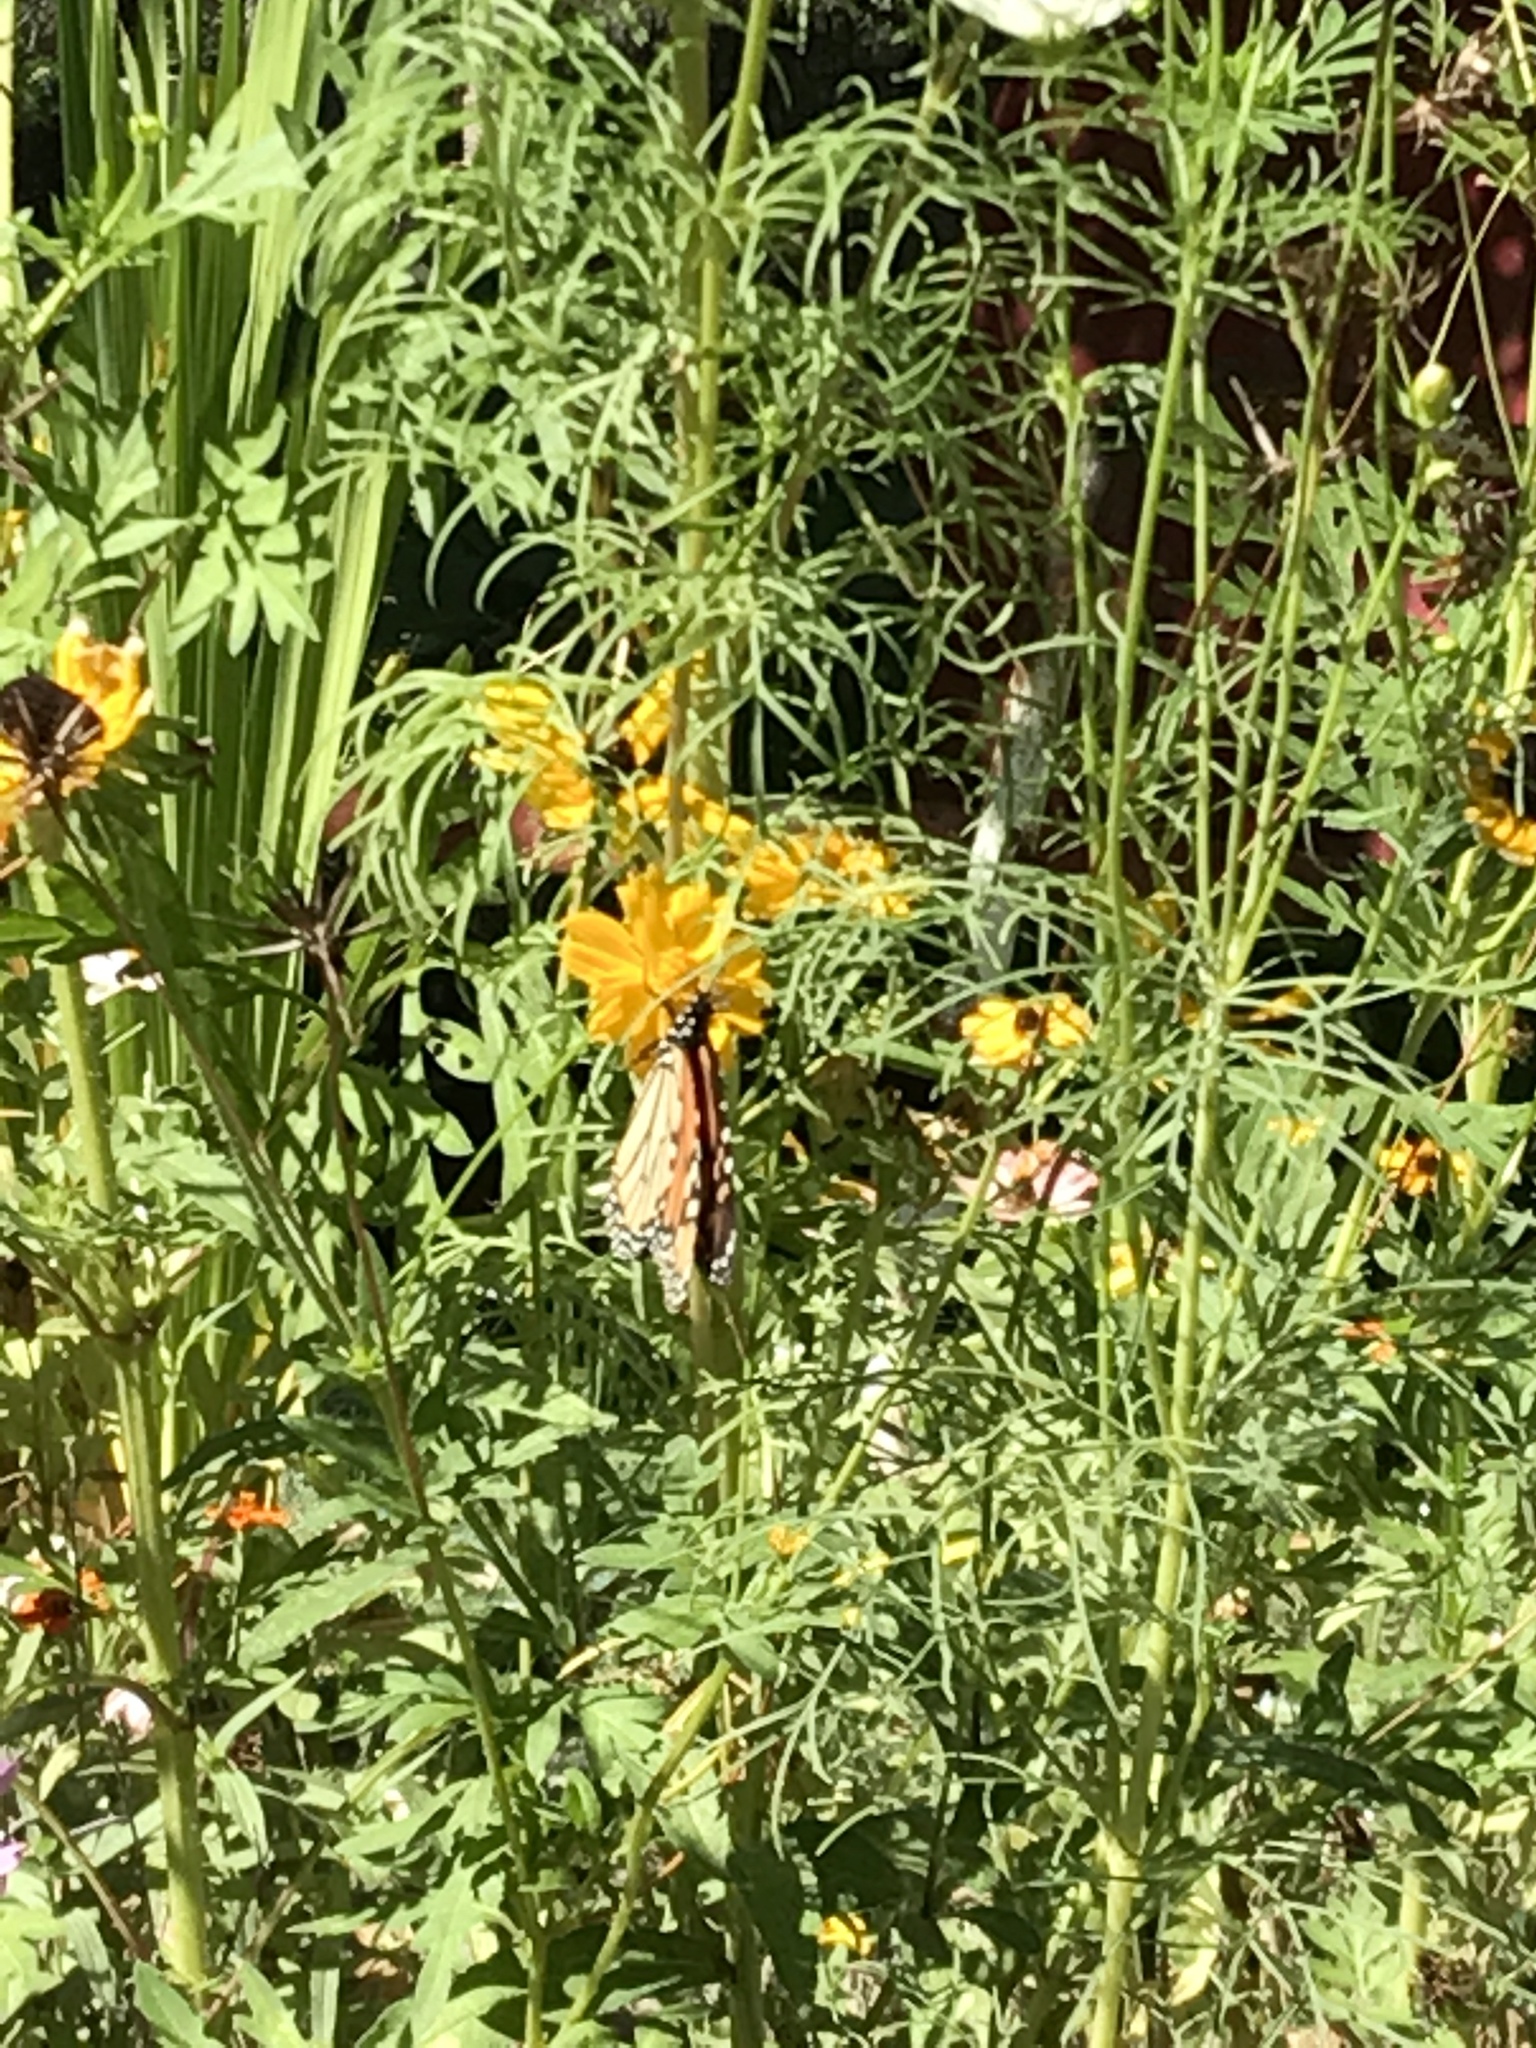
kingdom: Animalia
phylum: Arthropoda
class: Insecta
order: Lepidoptera
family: Nymphalidae
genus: Danaus
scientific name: Danaus plexippus
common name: Monarch
